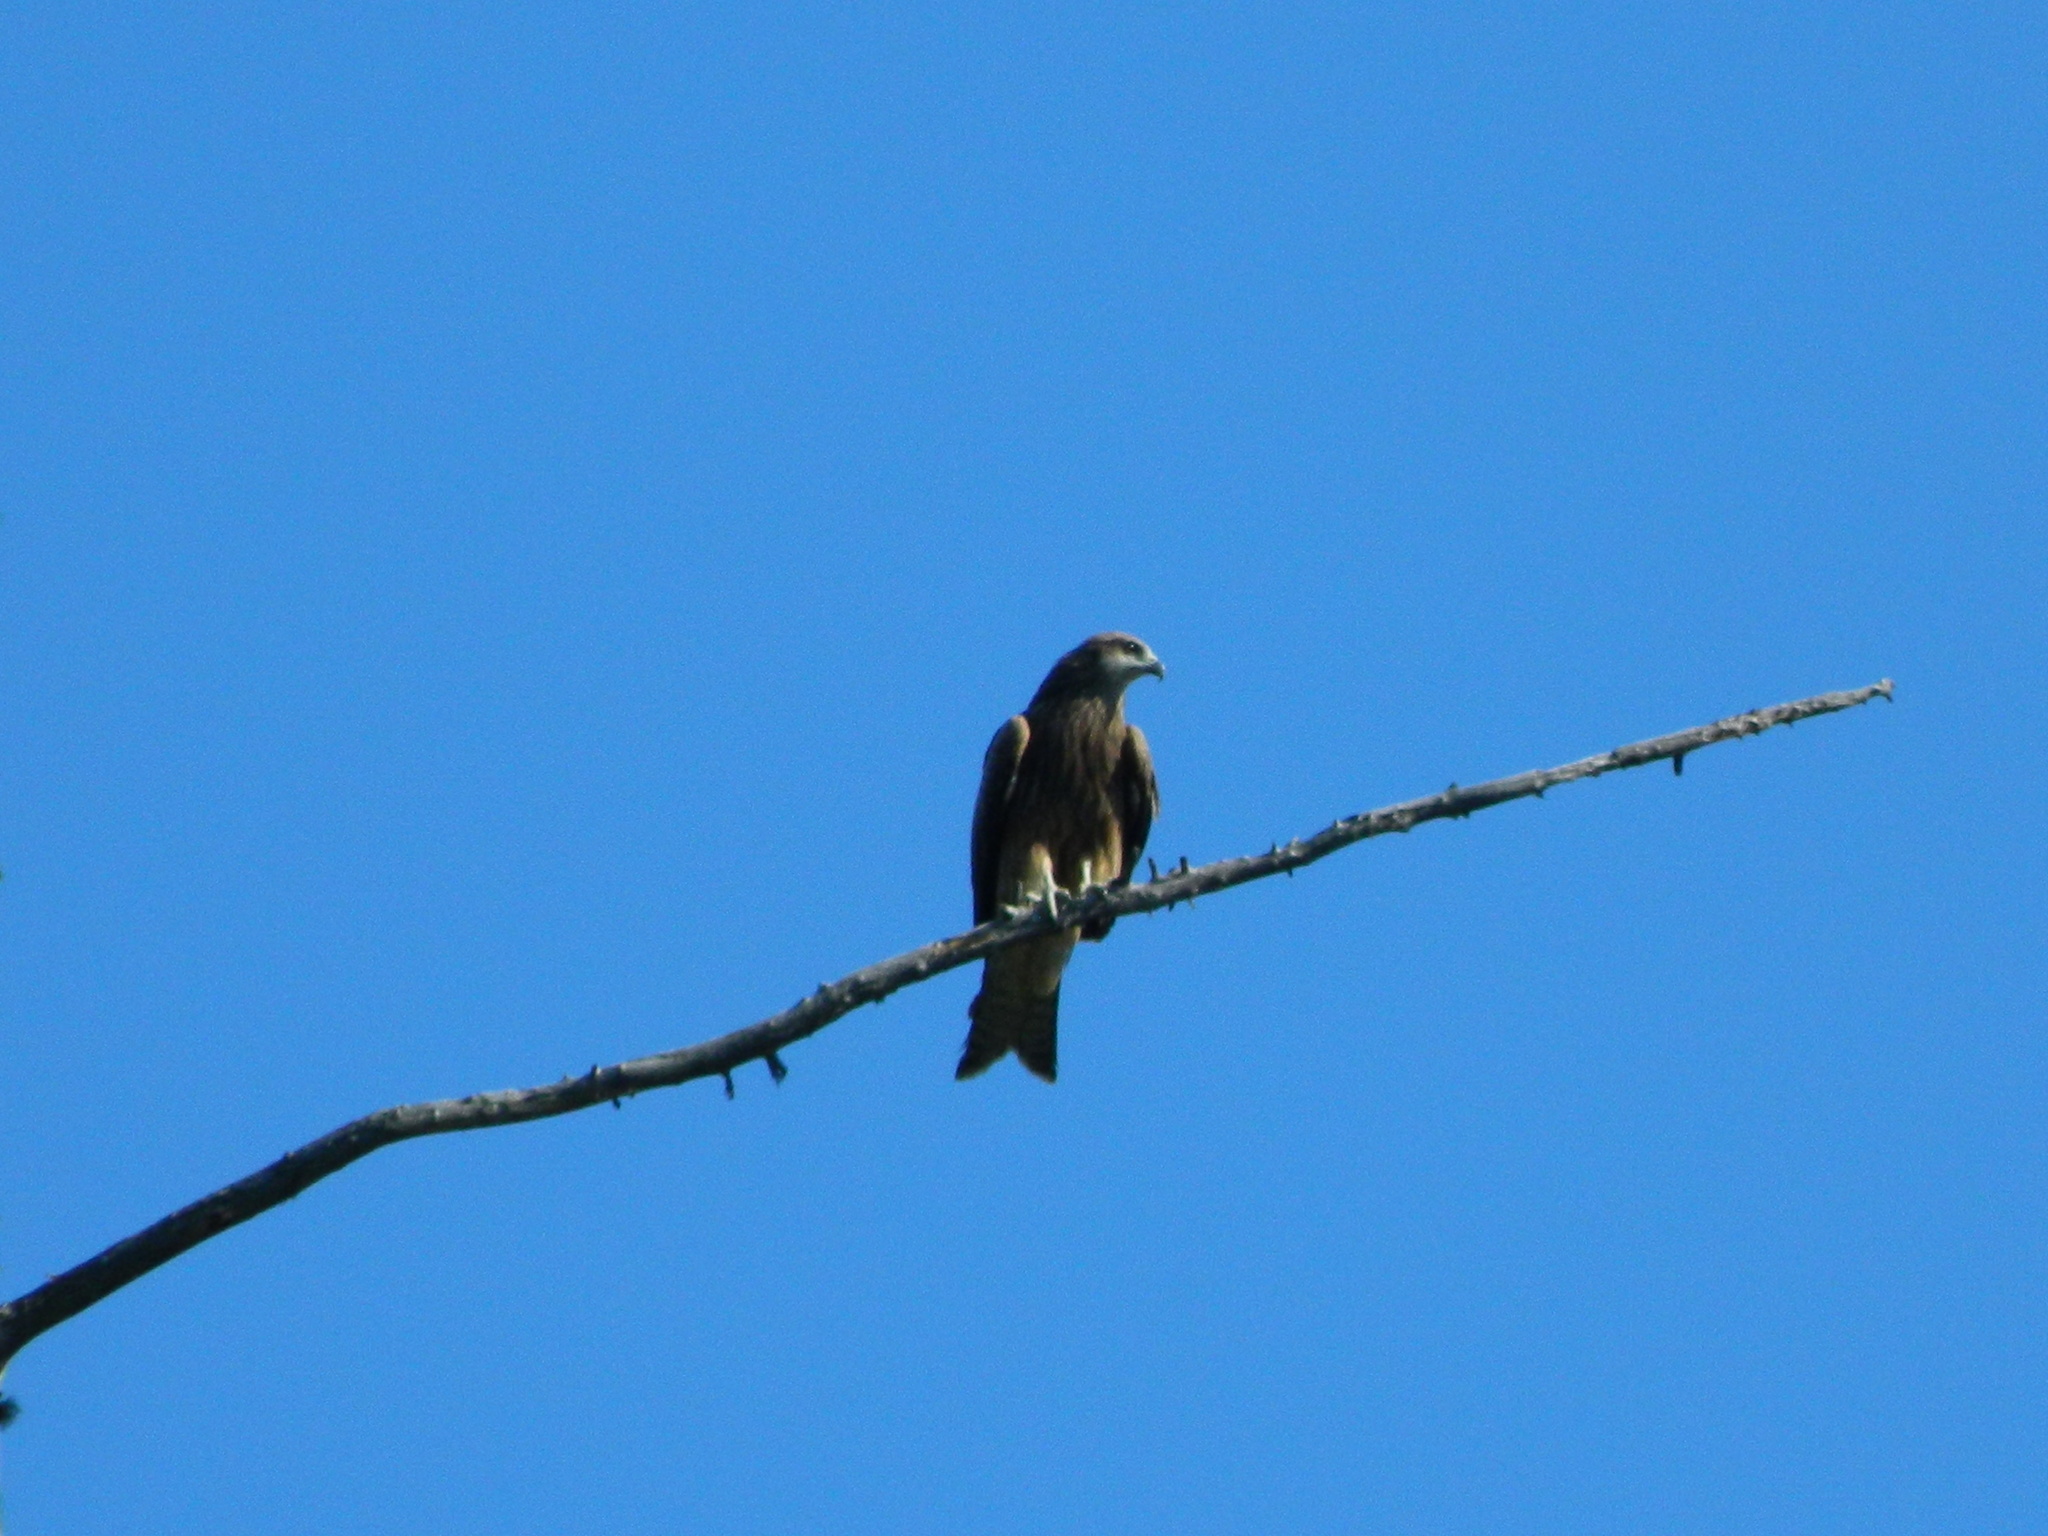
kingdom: Animalia
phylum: Chordata
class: Aves
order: Accipitriformes
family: Accipitridae
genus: Milvus
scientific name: Milvus migrans
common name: Black kite
